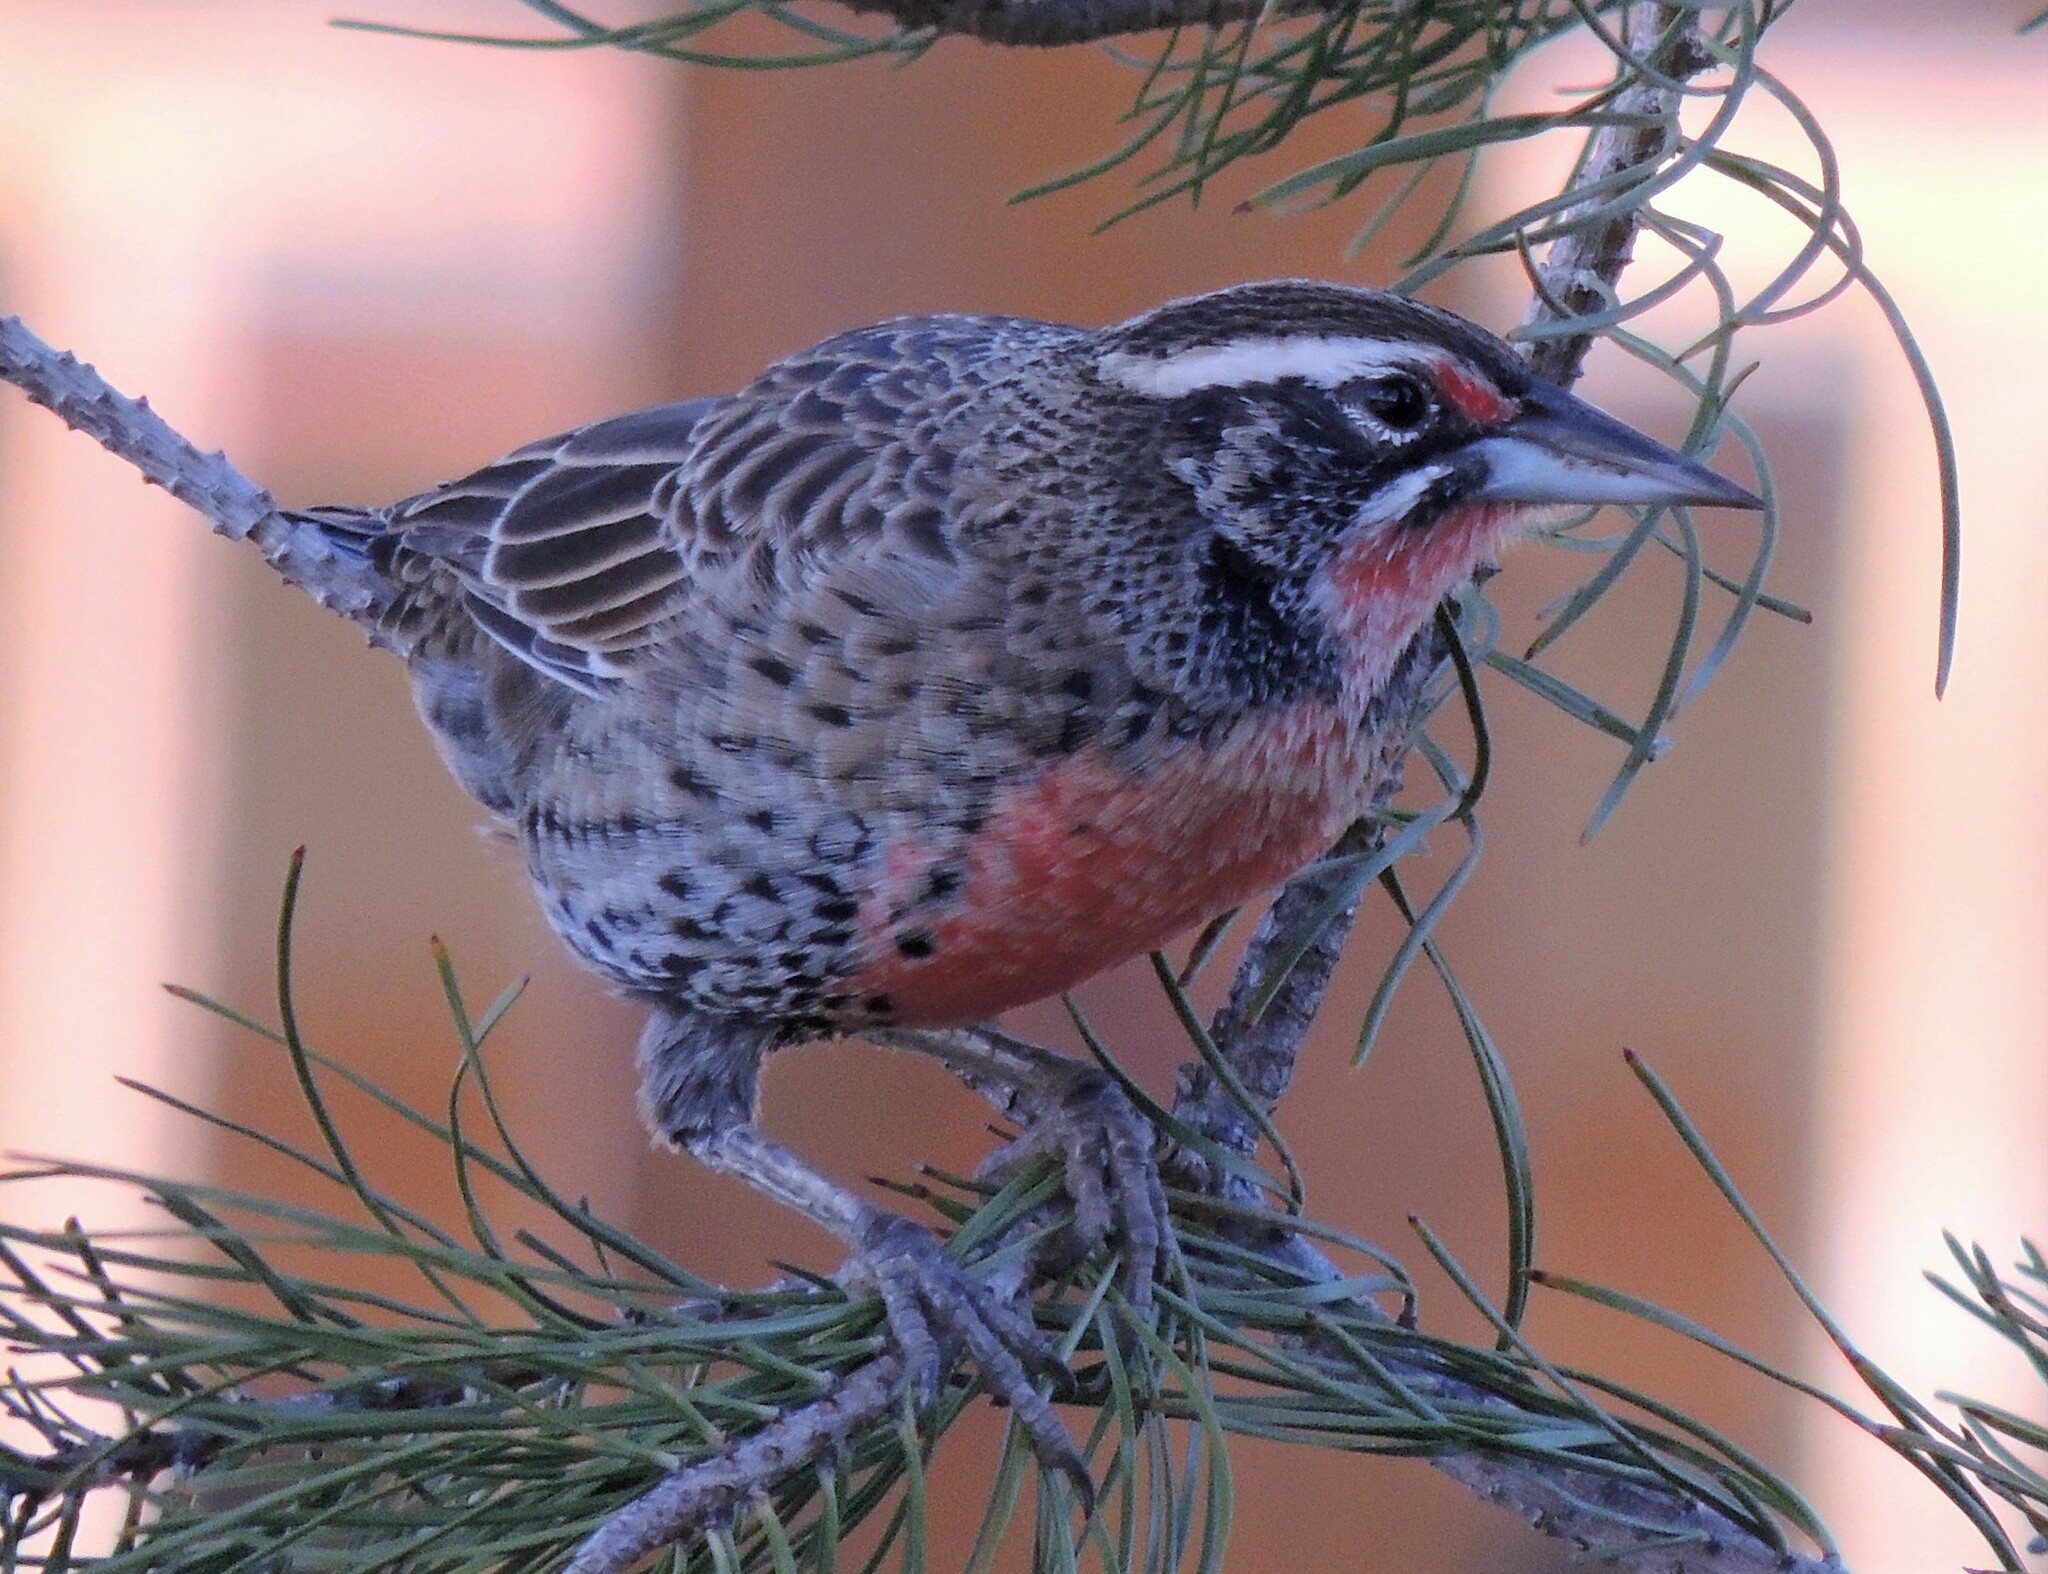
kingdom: Animalia
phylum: Chordata
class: Aves
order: Passeriformes
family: Icteridae
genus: Sturnella
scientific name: Sturnella loyca
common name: Long-tailed meadowlark
